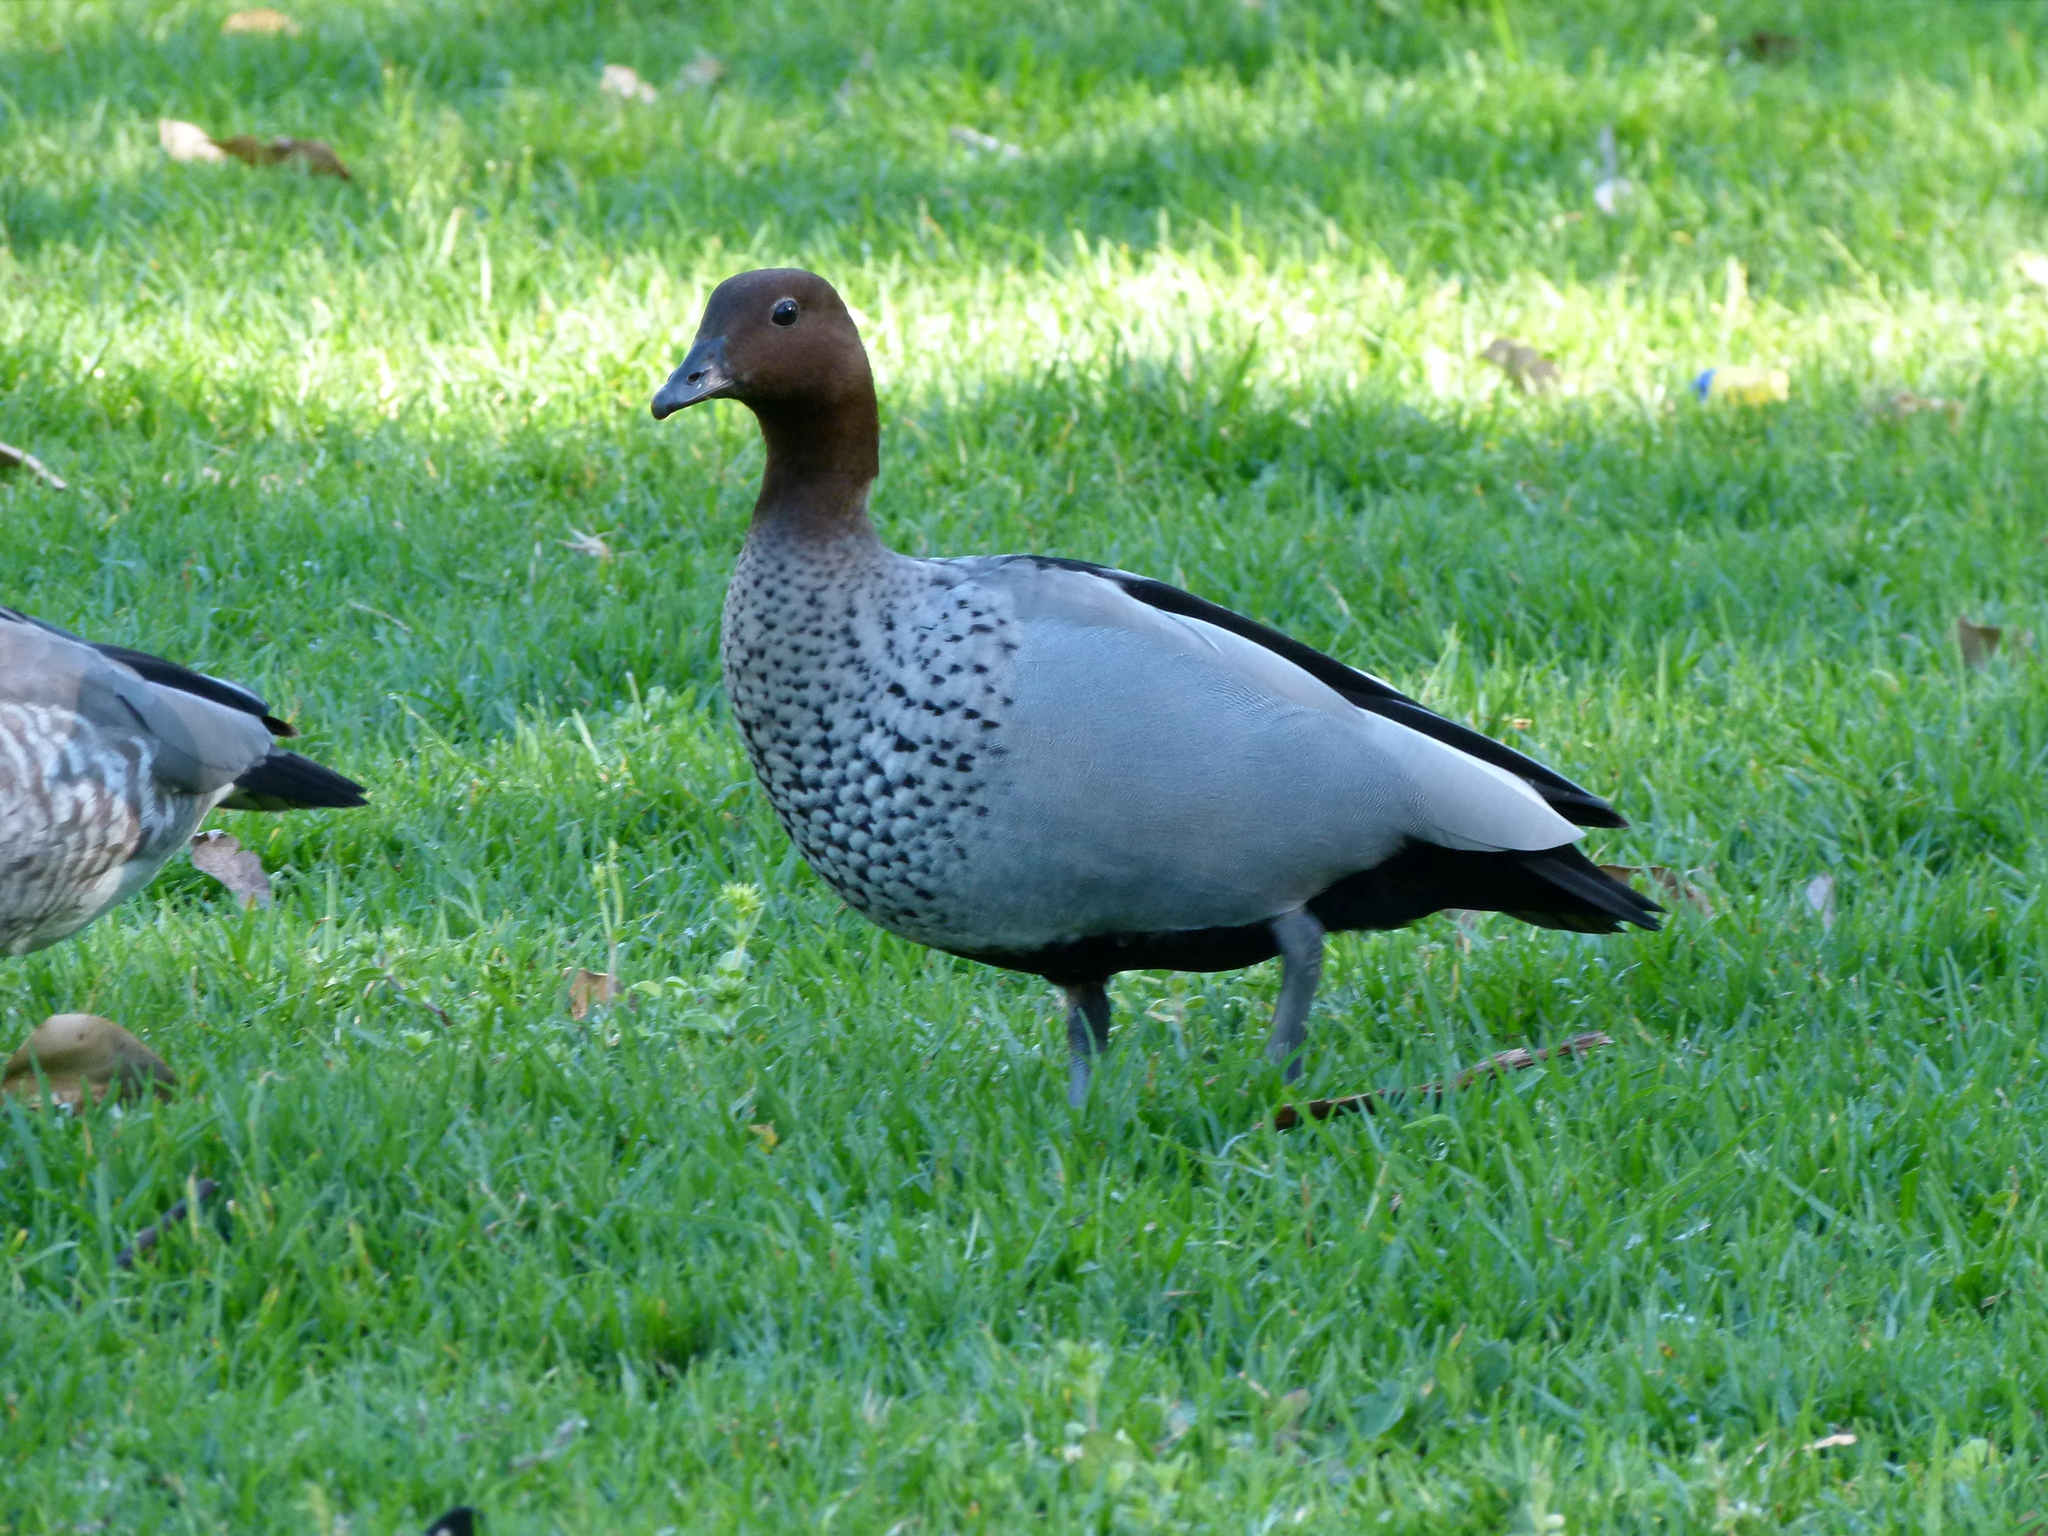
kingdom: Animalia
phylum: Chordata
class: Aves
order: Anseriformes
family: Anatidae
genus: Chenonetta
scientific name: Chenonetta jubata
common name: Maned duck
